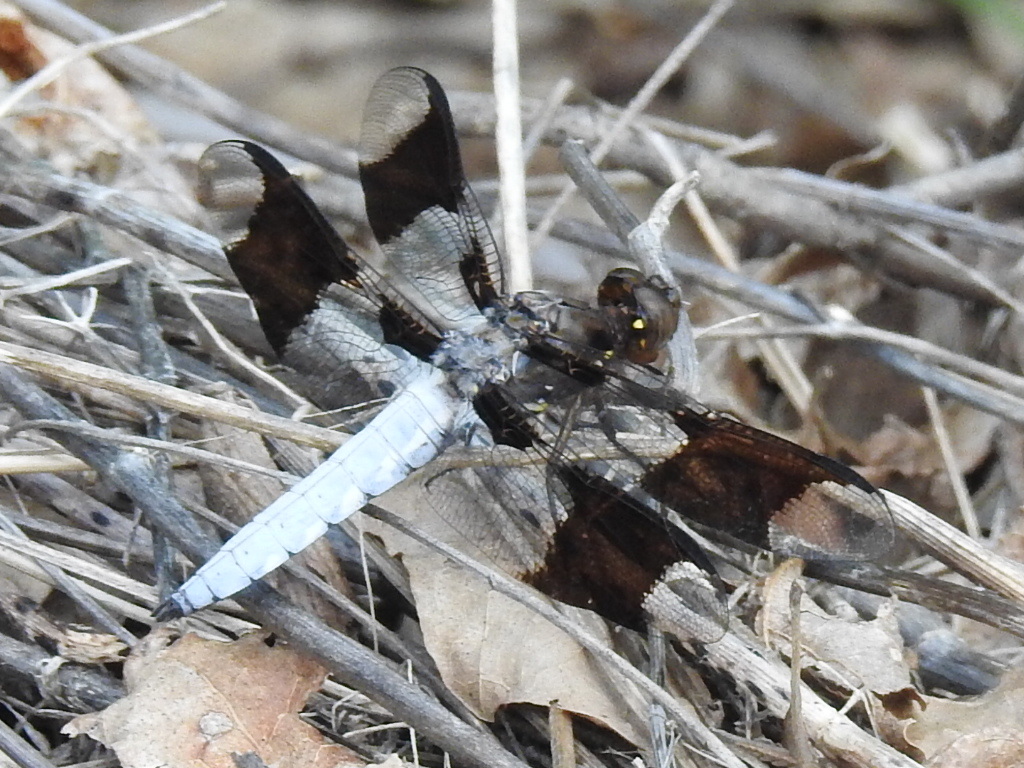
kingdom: Animalia
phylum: Arthropoda
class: Insecta
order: Odonata
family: Libellulidae
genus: Plathemis
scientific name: Plathemis lydia
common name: Common whitetail
